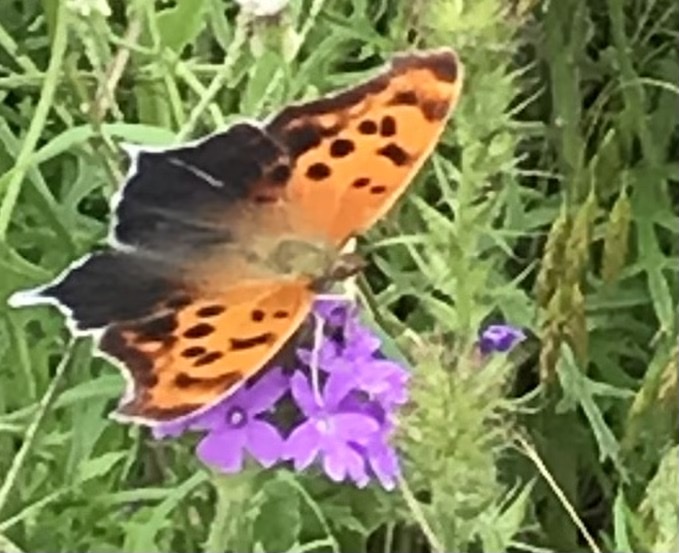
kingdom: Animalia
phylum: Arthropoda
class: Insecta
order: Lepidoptera
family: Nymphalidae
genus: Polygonia
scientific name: Polygonia interrogationis
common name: Question mark
